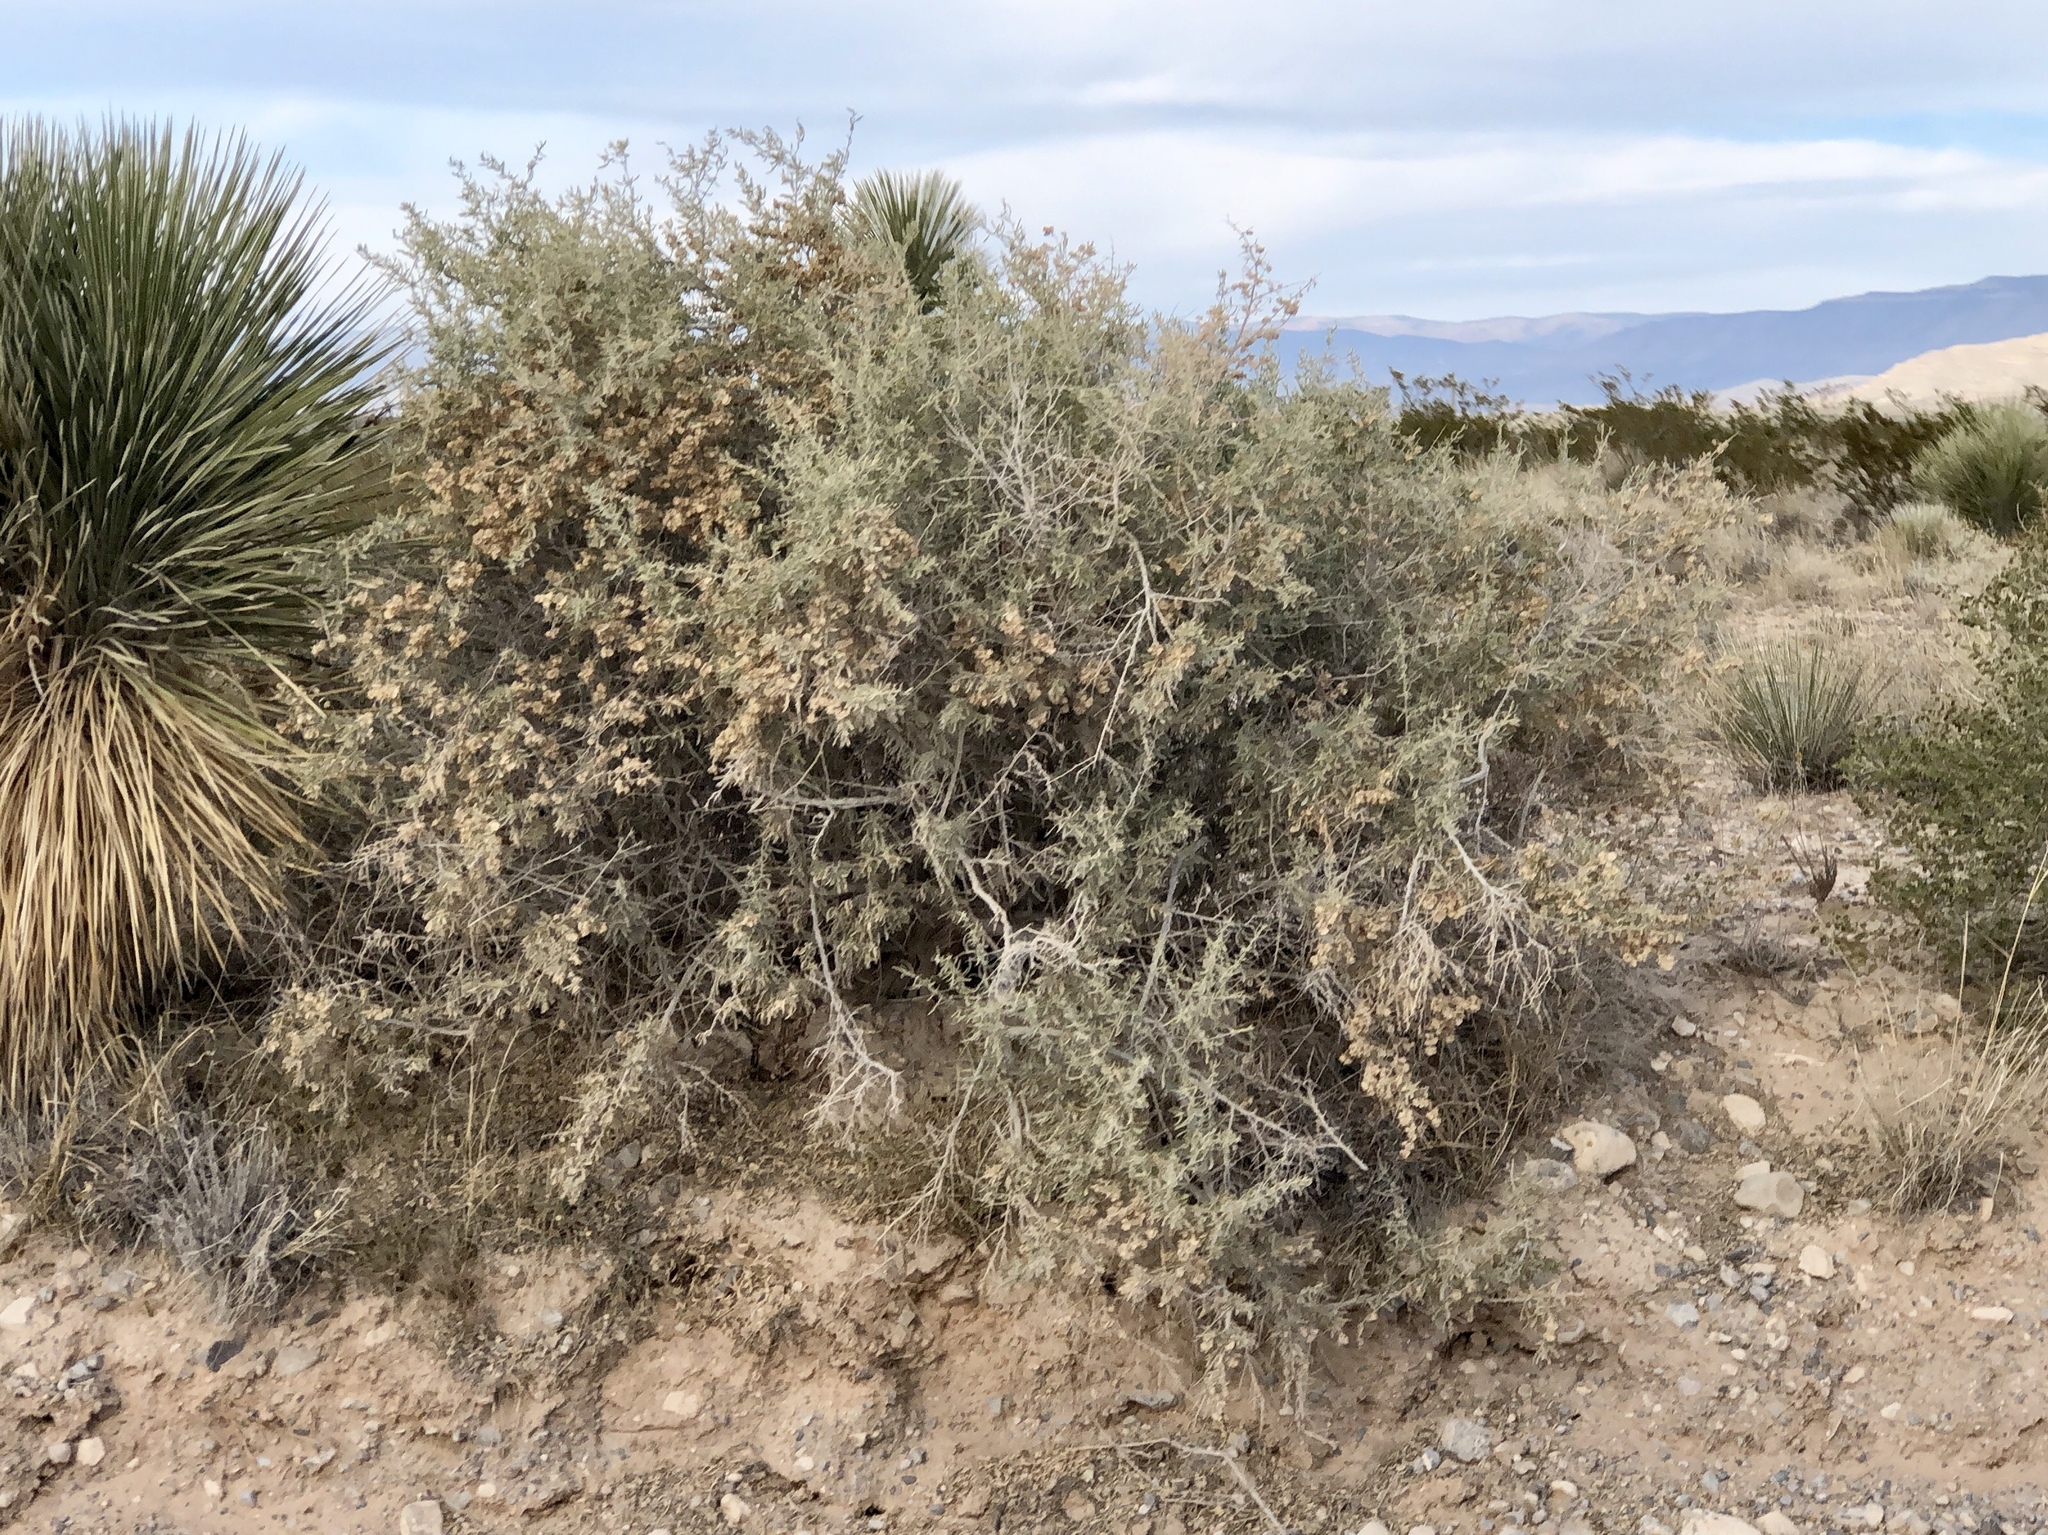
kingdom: Plantae
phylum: Tracheophyta
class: Magnoliopsida
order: Caryophyllales
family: Amaranthaceae
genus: Atriplex
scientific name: Atriplex canescens
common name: Four-wing saltbush
